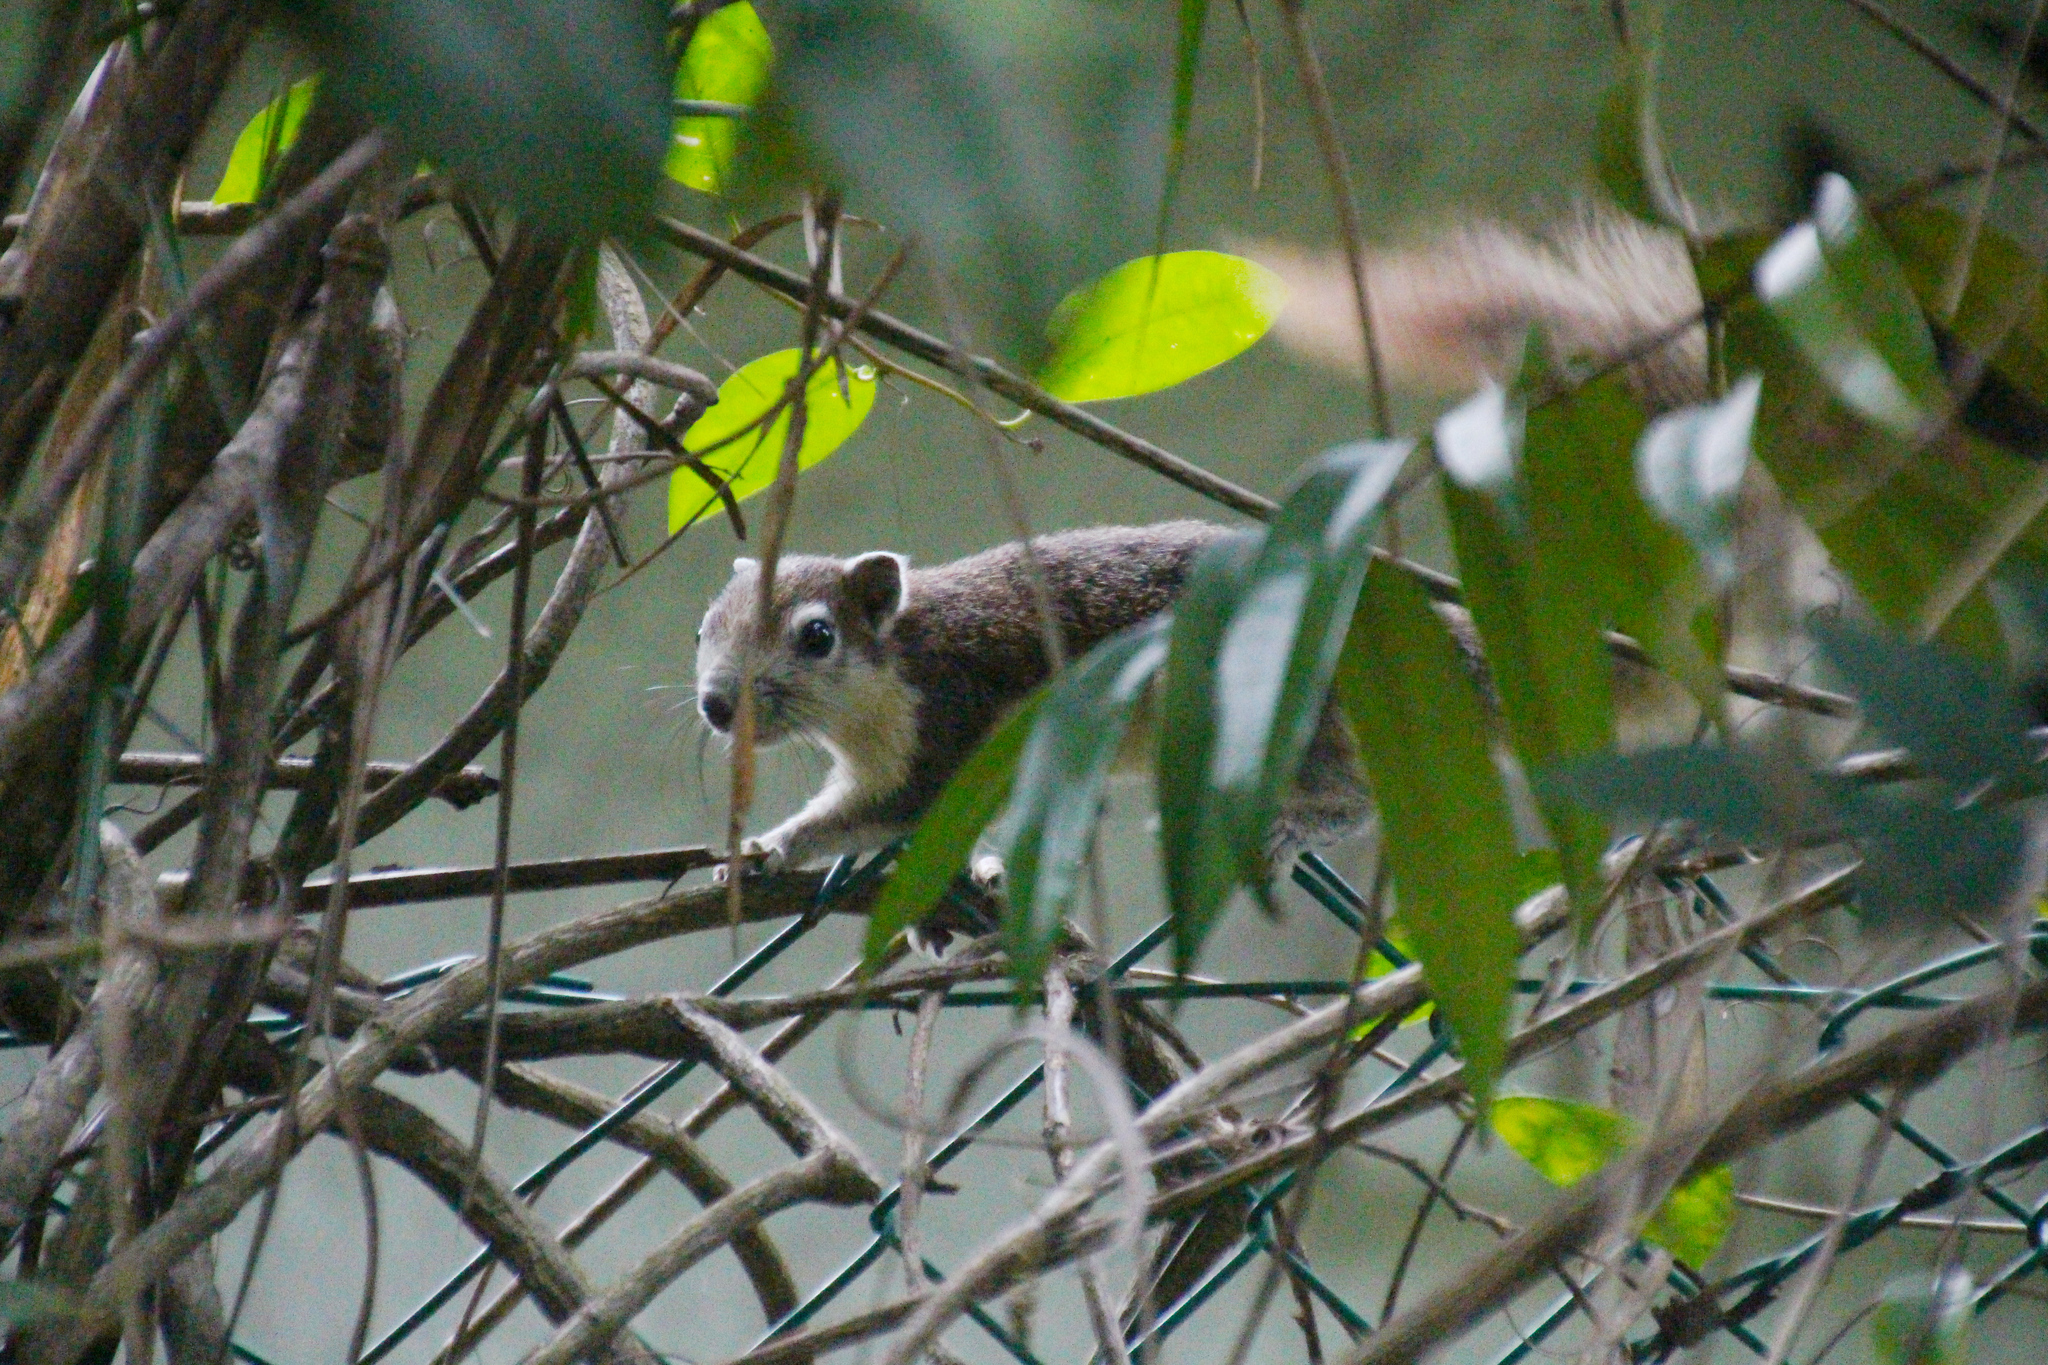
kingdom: Animalia
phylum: Chordata
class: Mammalia
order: Rodentia
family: Sciuridae
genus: Callosciurus
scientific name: Callosciurus finlaysonii
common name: Finlayson's squirrel
